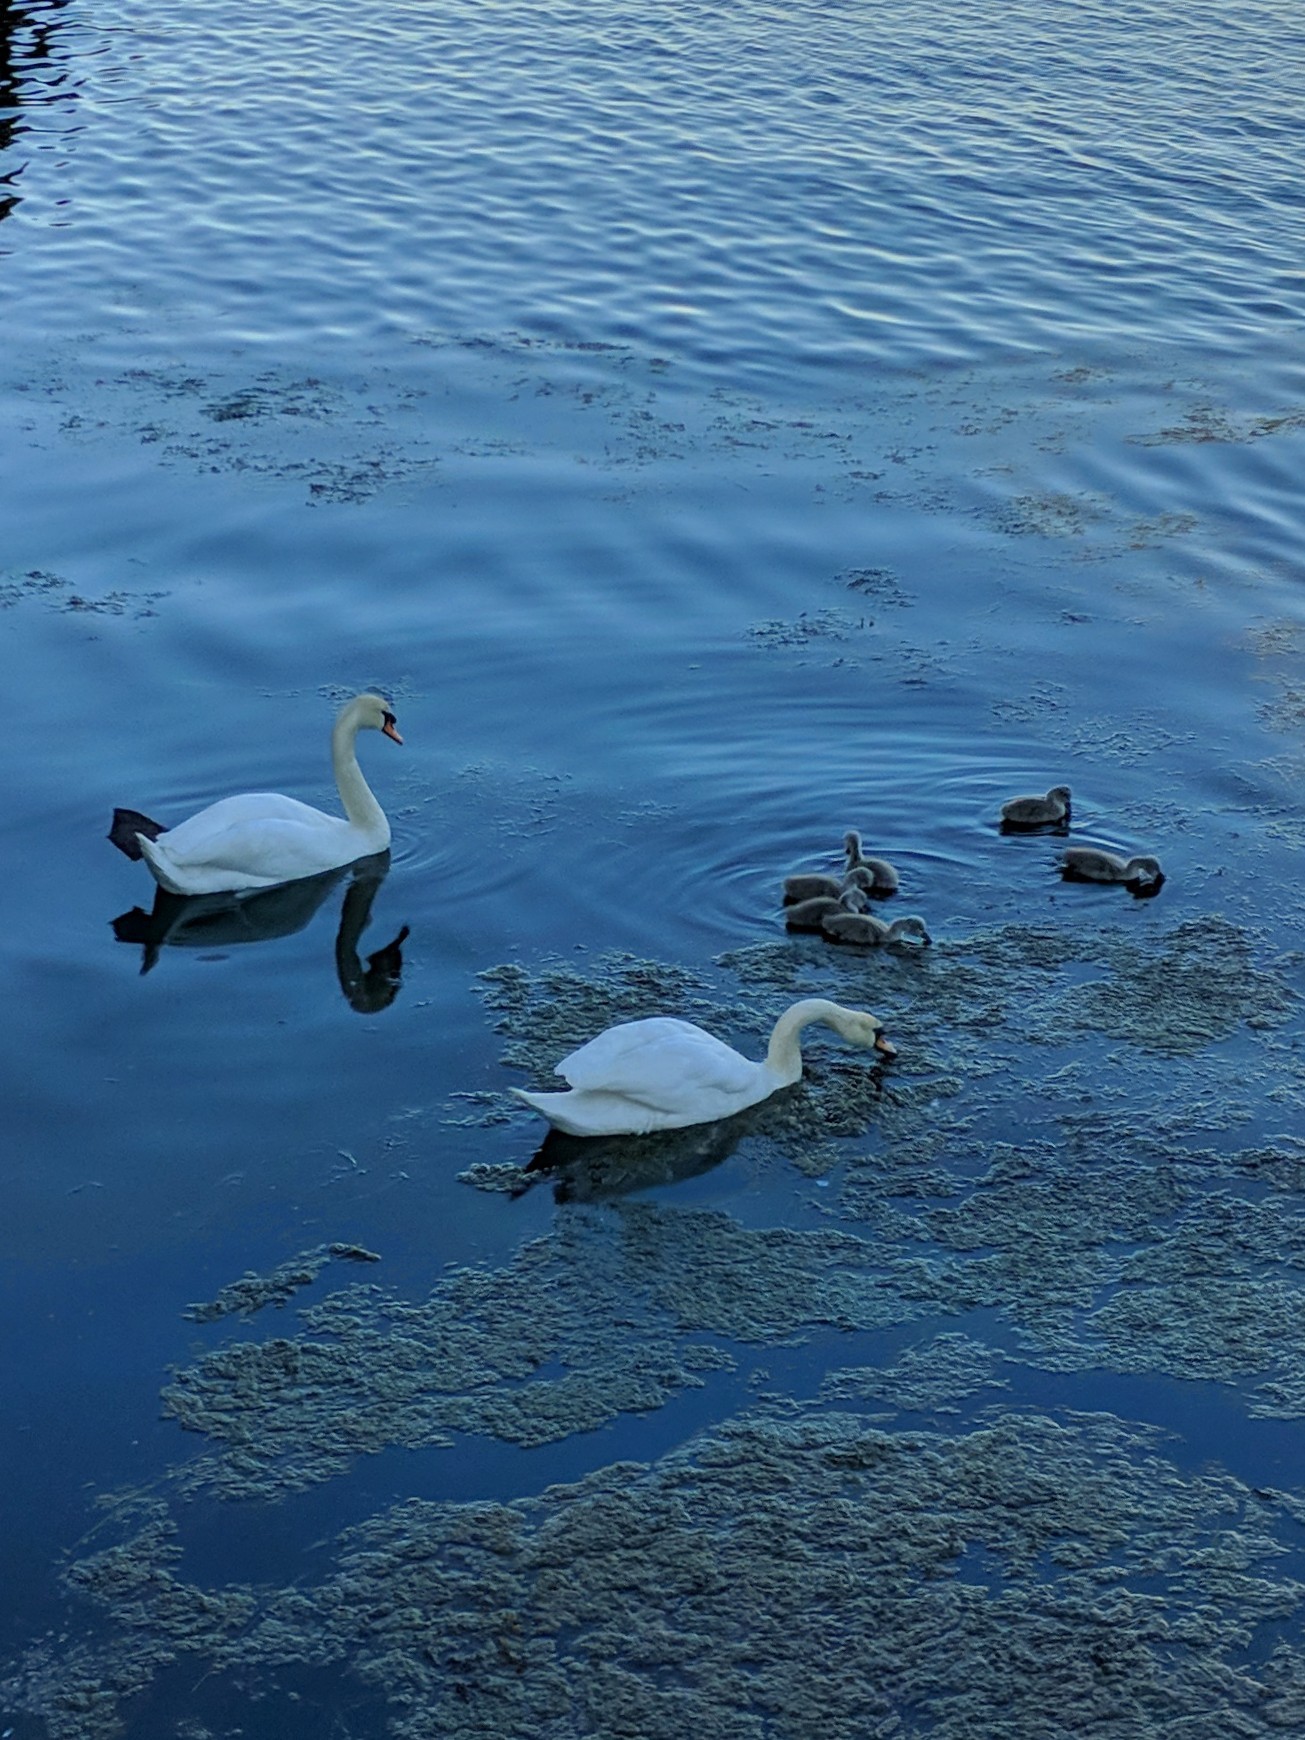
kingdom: Animalia
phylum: Chordata
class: Aves
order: Anseriformes
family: Anatidae
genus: Cygnus
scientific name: Cygnus olor
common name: Mute swan
